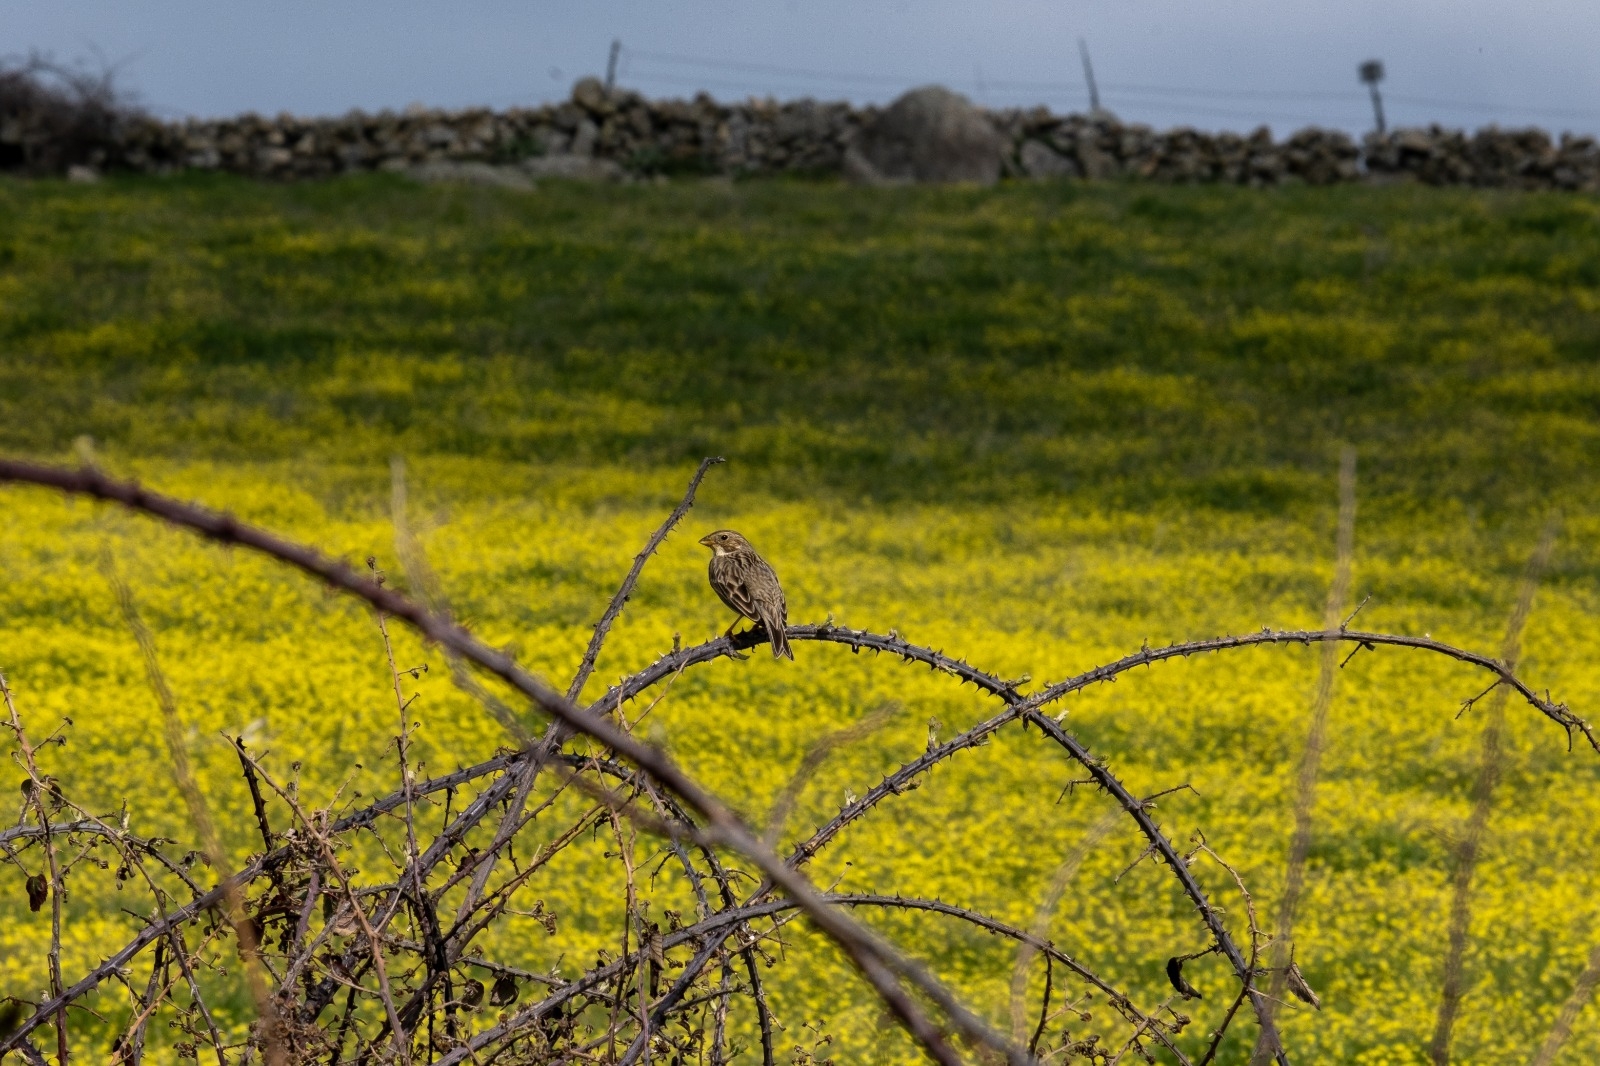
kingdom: Animalia
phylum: Chordata
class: Aves
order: Passeriformes
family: Emberizidae
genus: Emberiza
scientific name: Emberiza calandra
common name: Corn bunting
